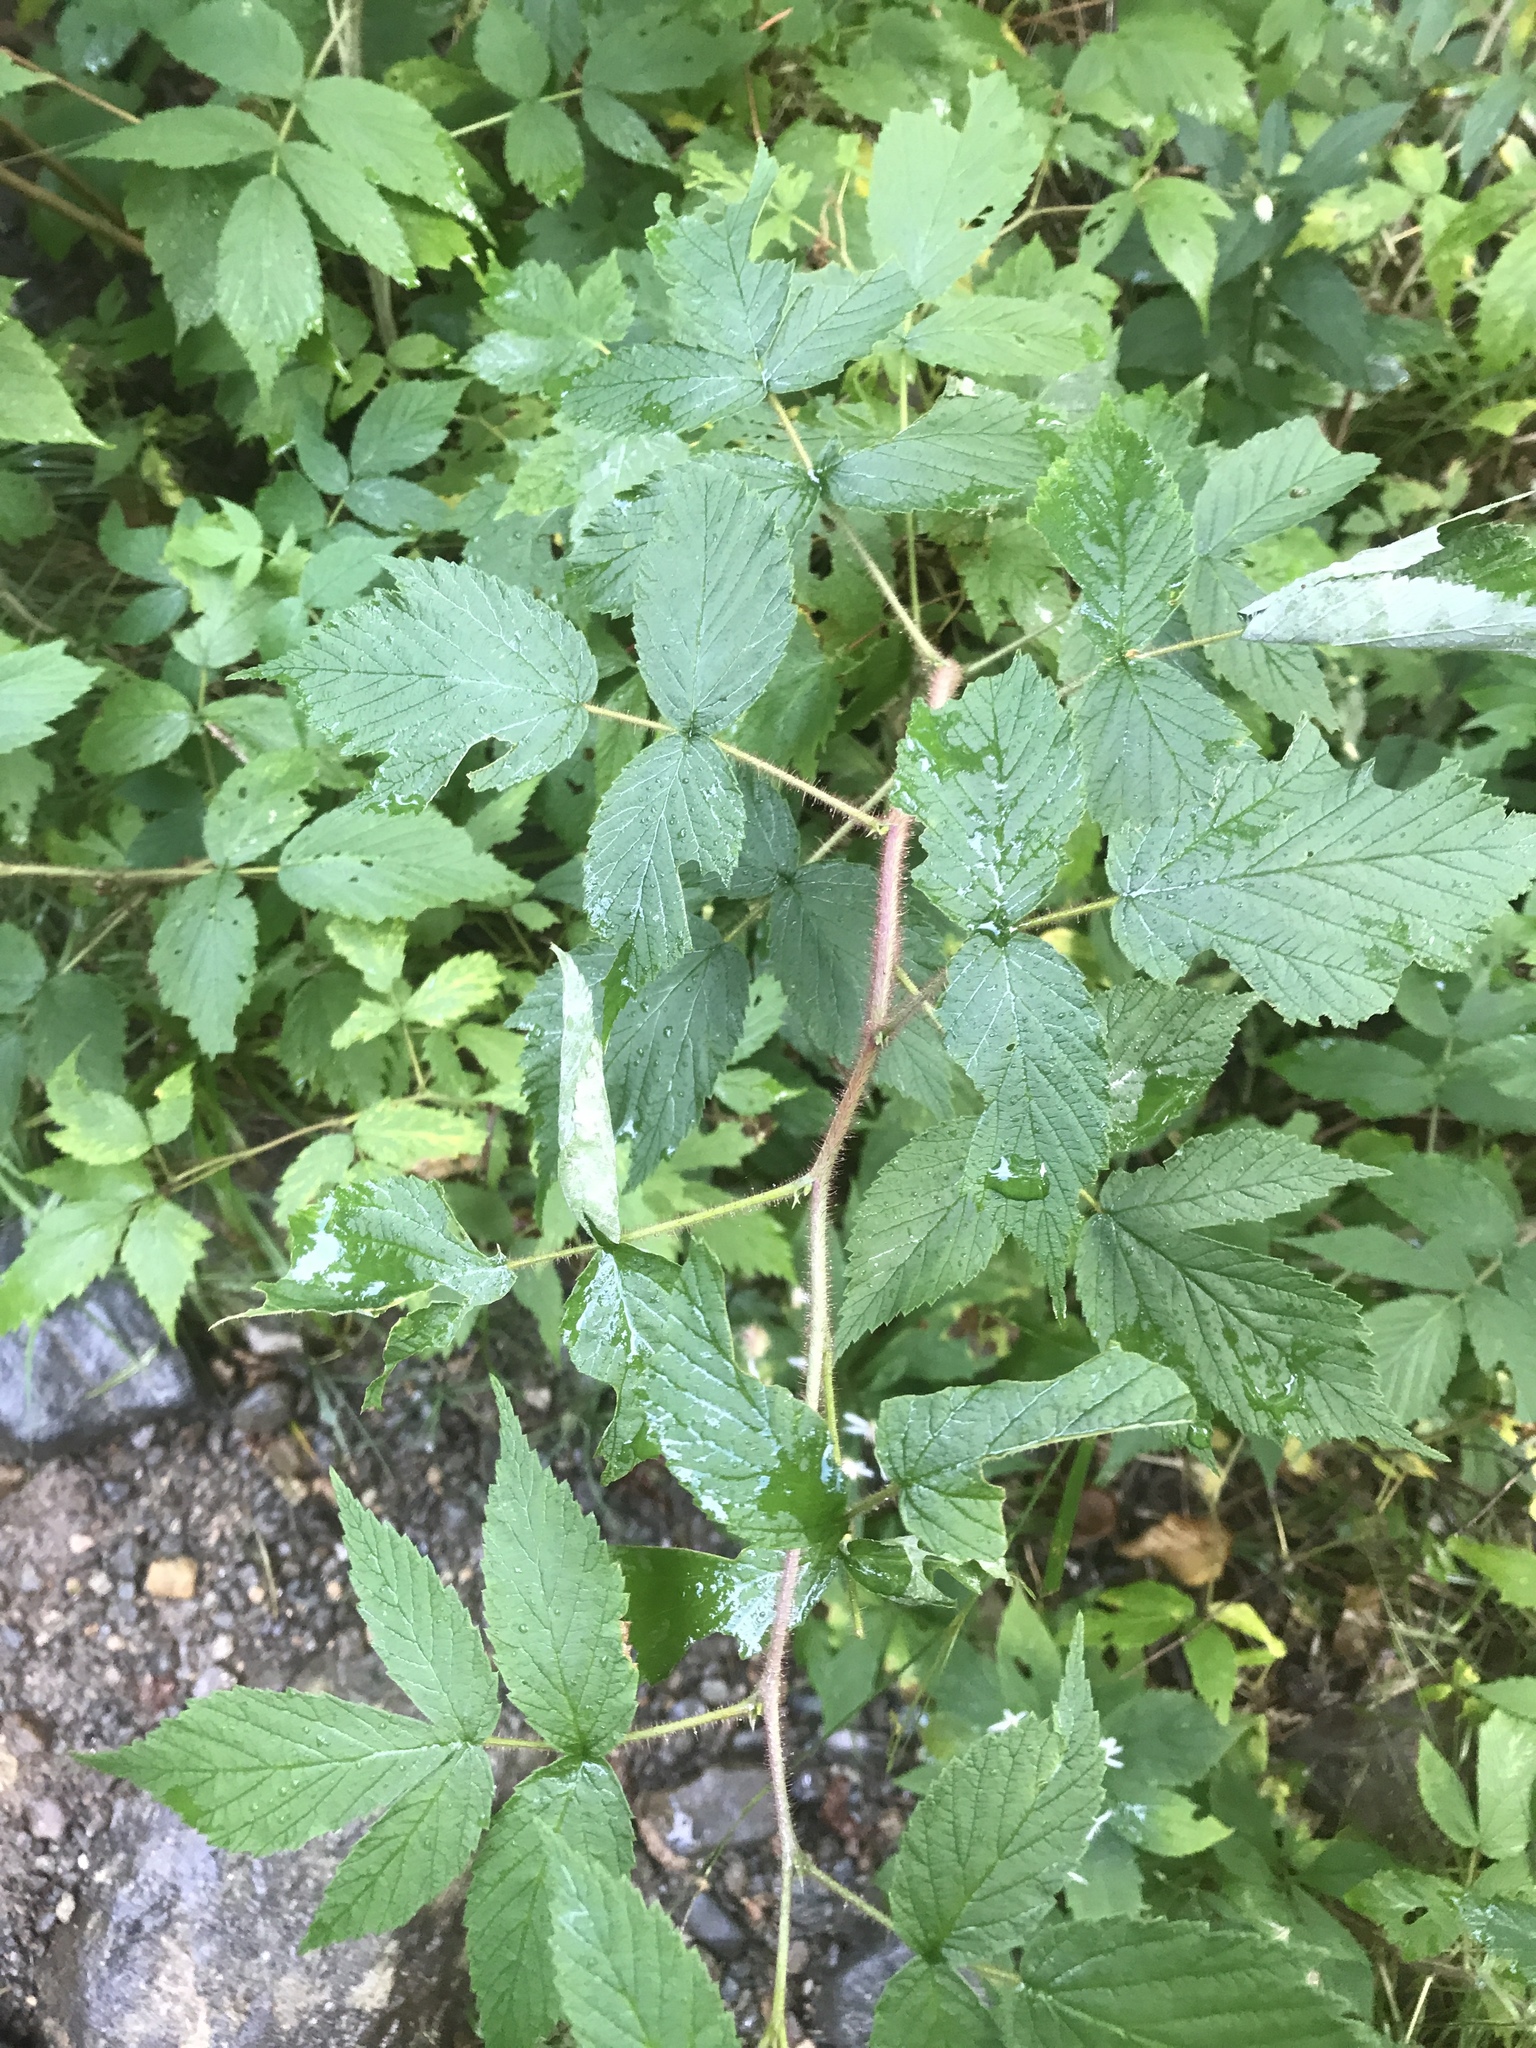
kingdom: Plantae
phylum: Tracheophyta
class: Magnoliopsida
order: Rosales
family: Rosaceae
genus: Rubus
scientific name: Rubus idaeus
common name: Raspberry
